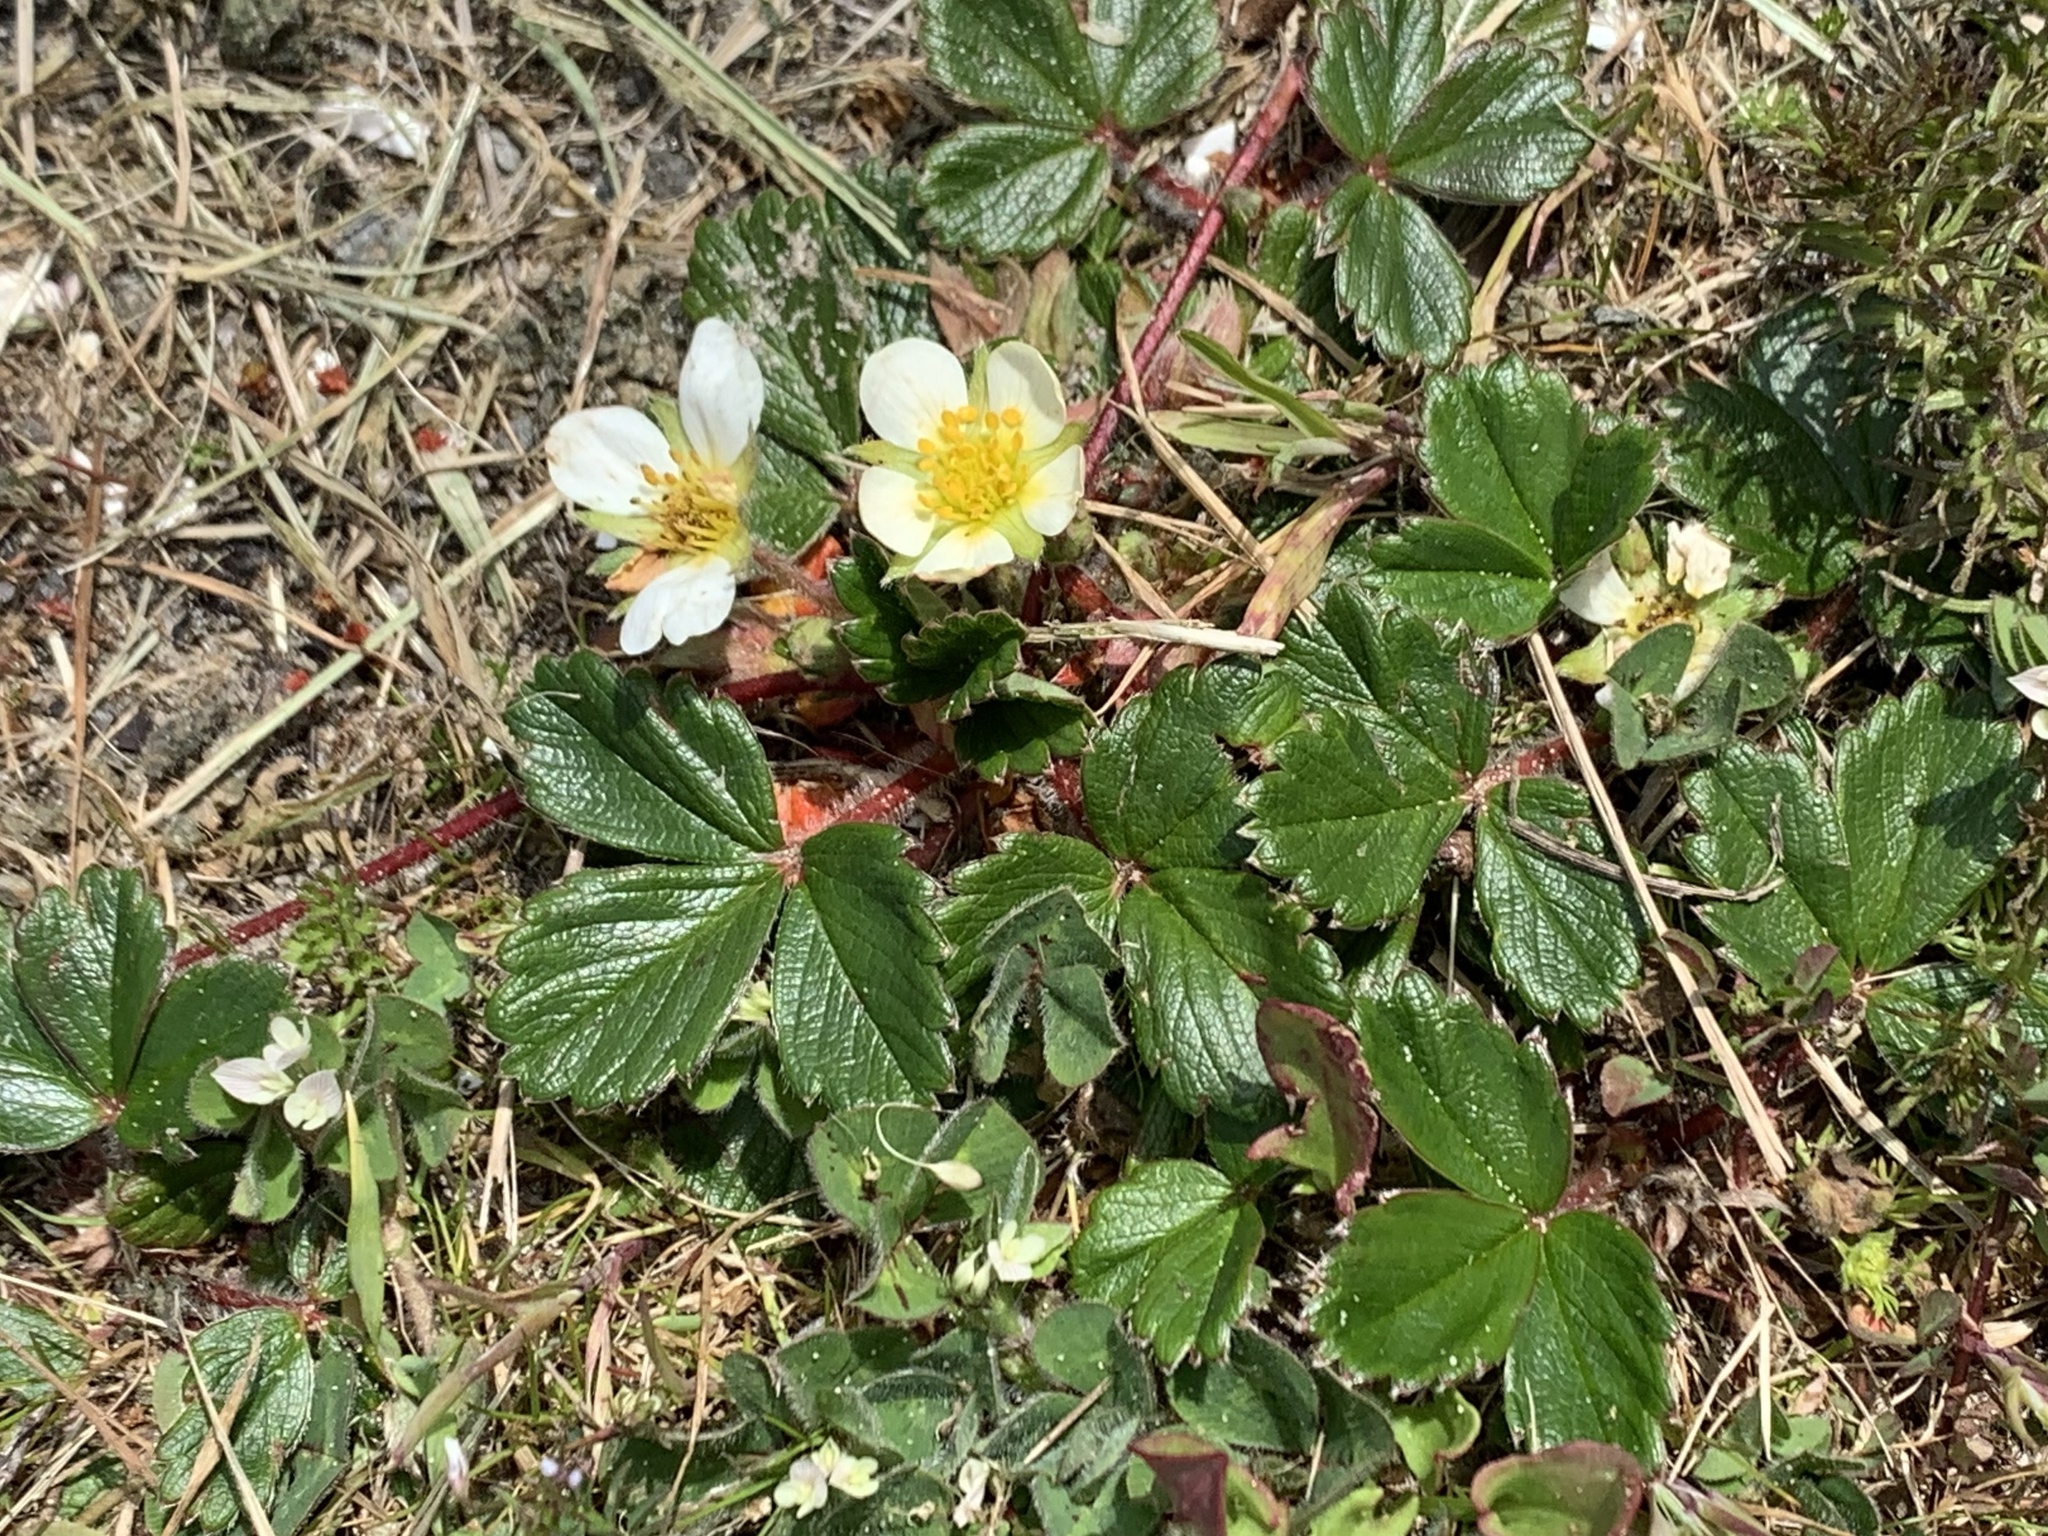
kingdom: Plantae
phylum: Tracheophyta
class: Magnoliopsida
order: Rosales
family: Rosaceae
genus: Fragaria
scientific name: Fragaria chiloensis
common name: Beach strawberry
